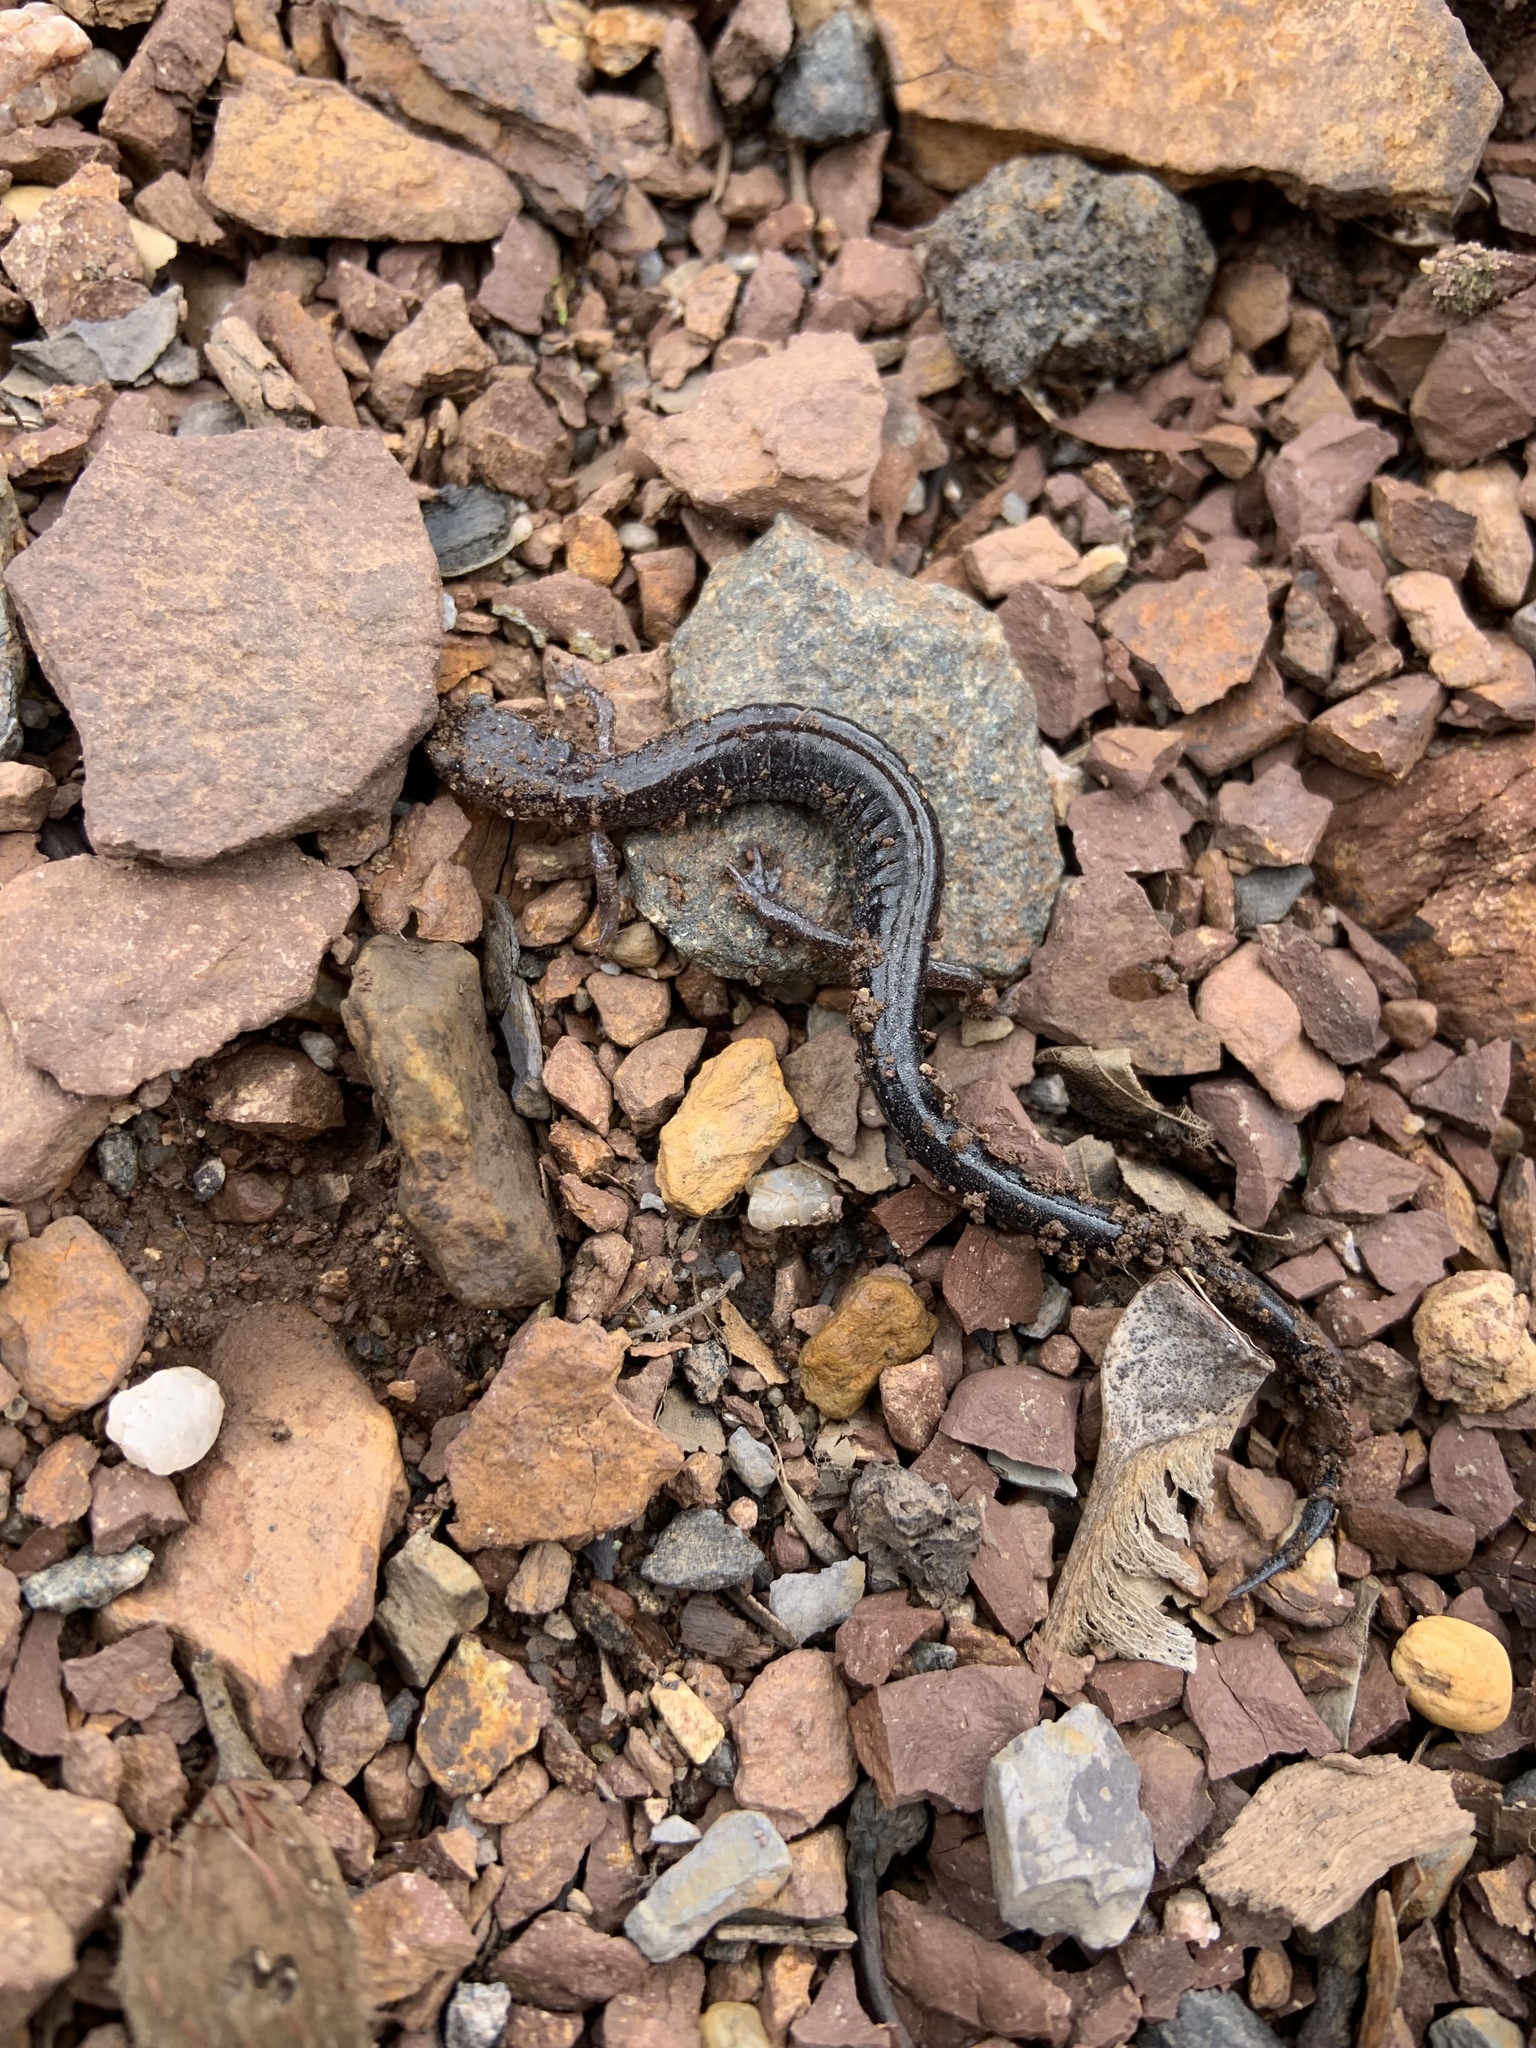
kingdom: Animalia
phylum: Chordata
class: Amphibia
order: Caudata
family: Plethodontidae
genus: Plethodon
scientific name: Plethodon cinereus
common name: Redback salamander
